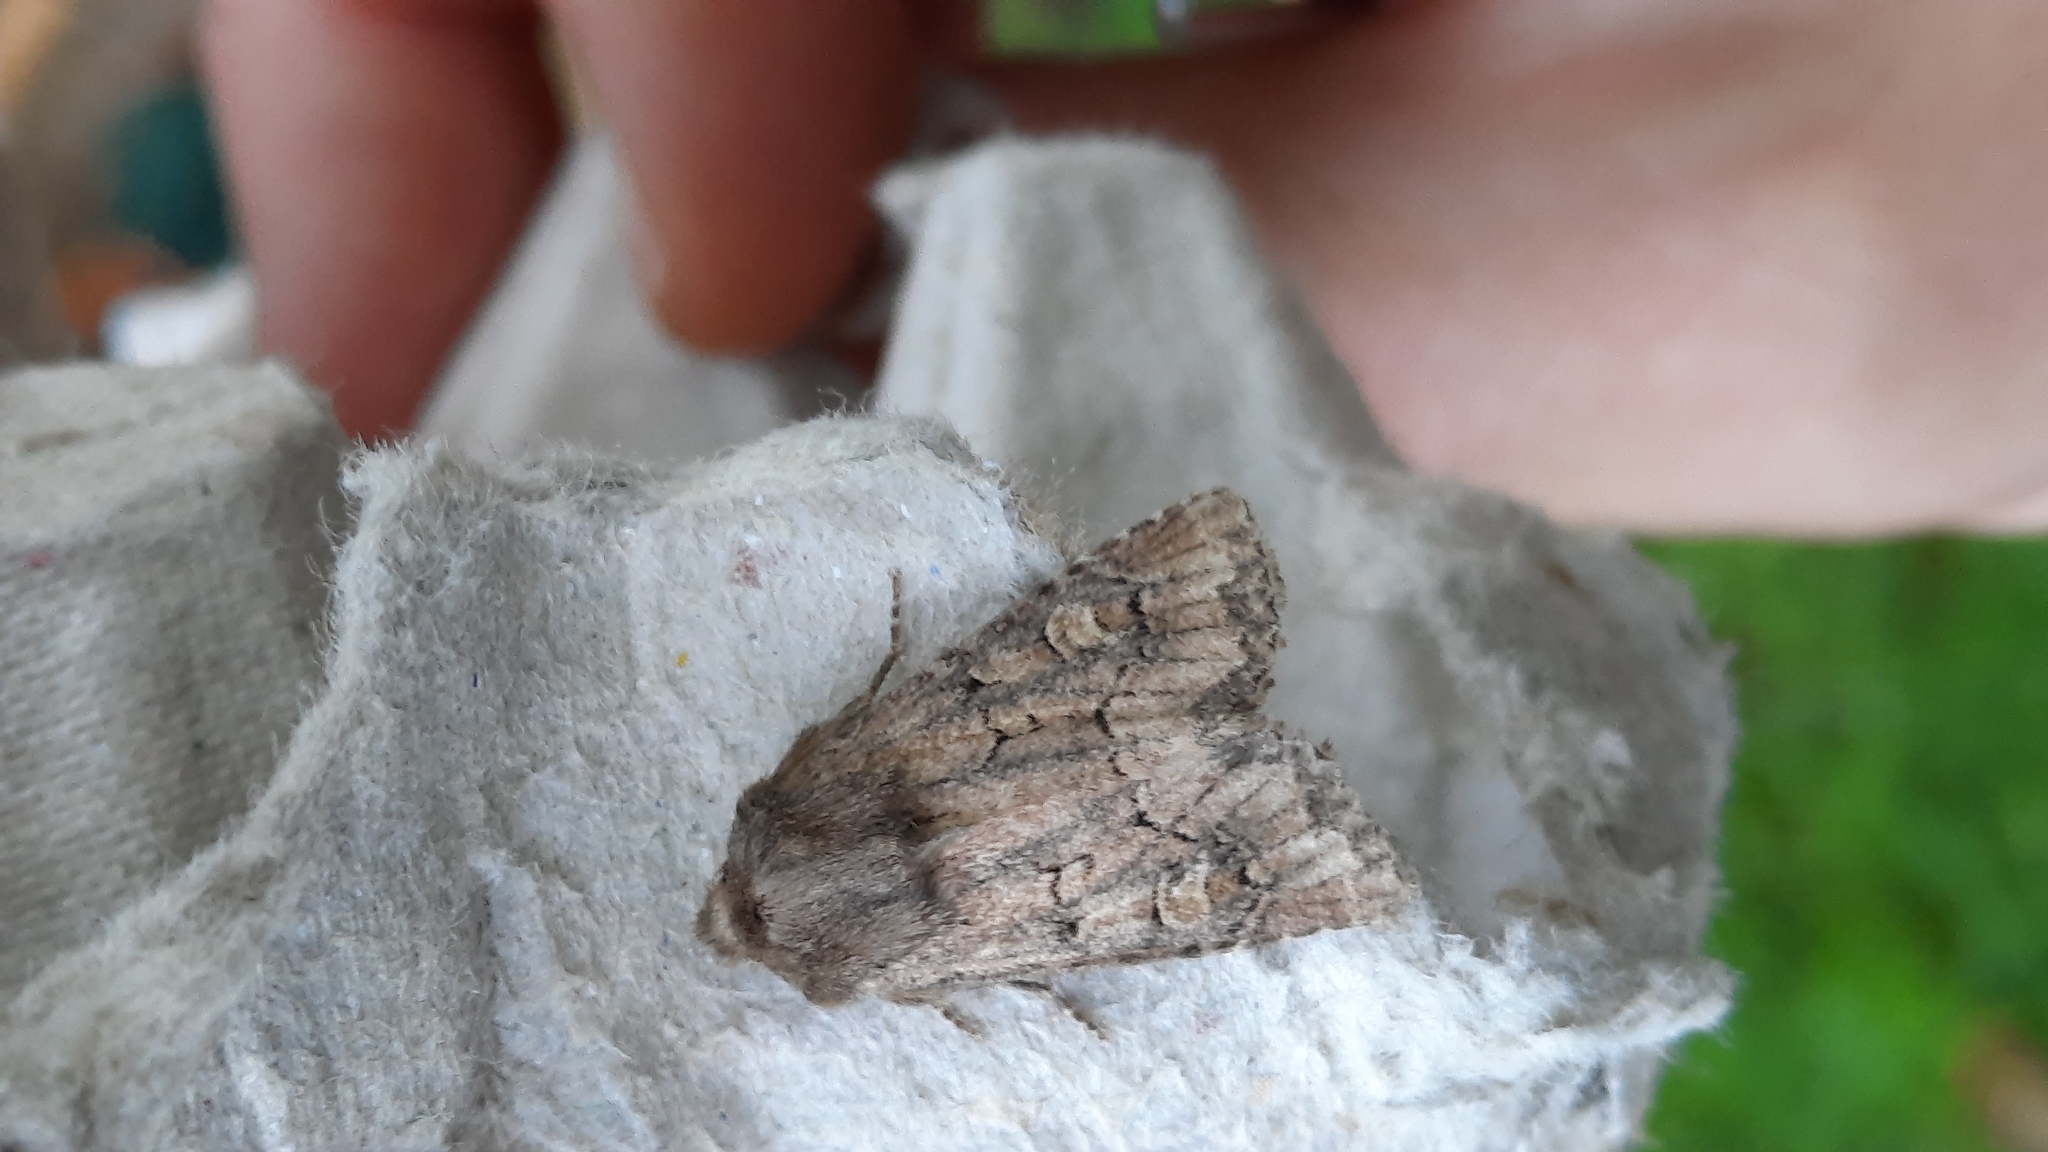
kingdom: Animalia
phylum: Arthropoda
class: Insecta
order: Lepidoptera
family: Noctuidae
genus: Luperina
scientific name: Luperina testacea
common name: Flounced rustic
